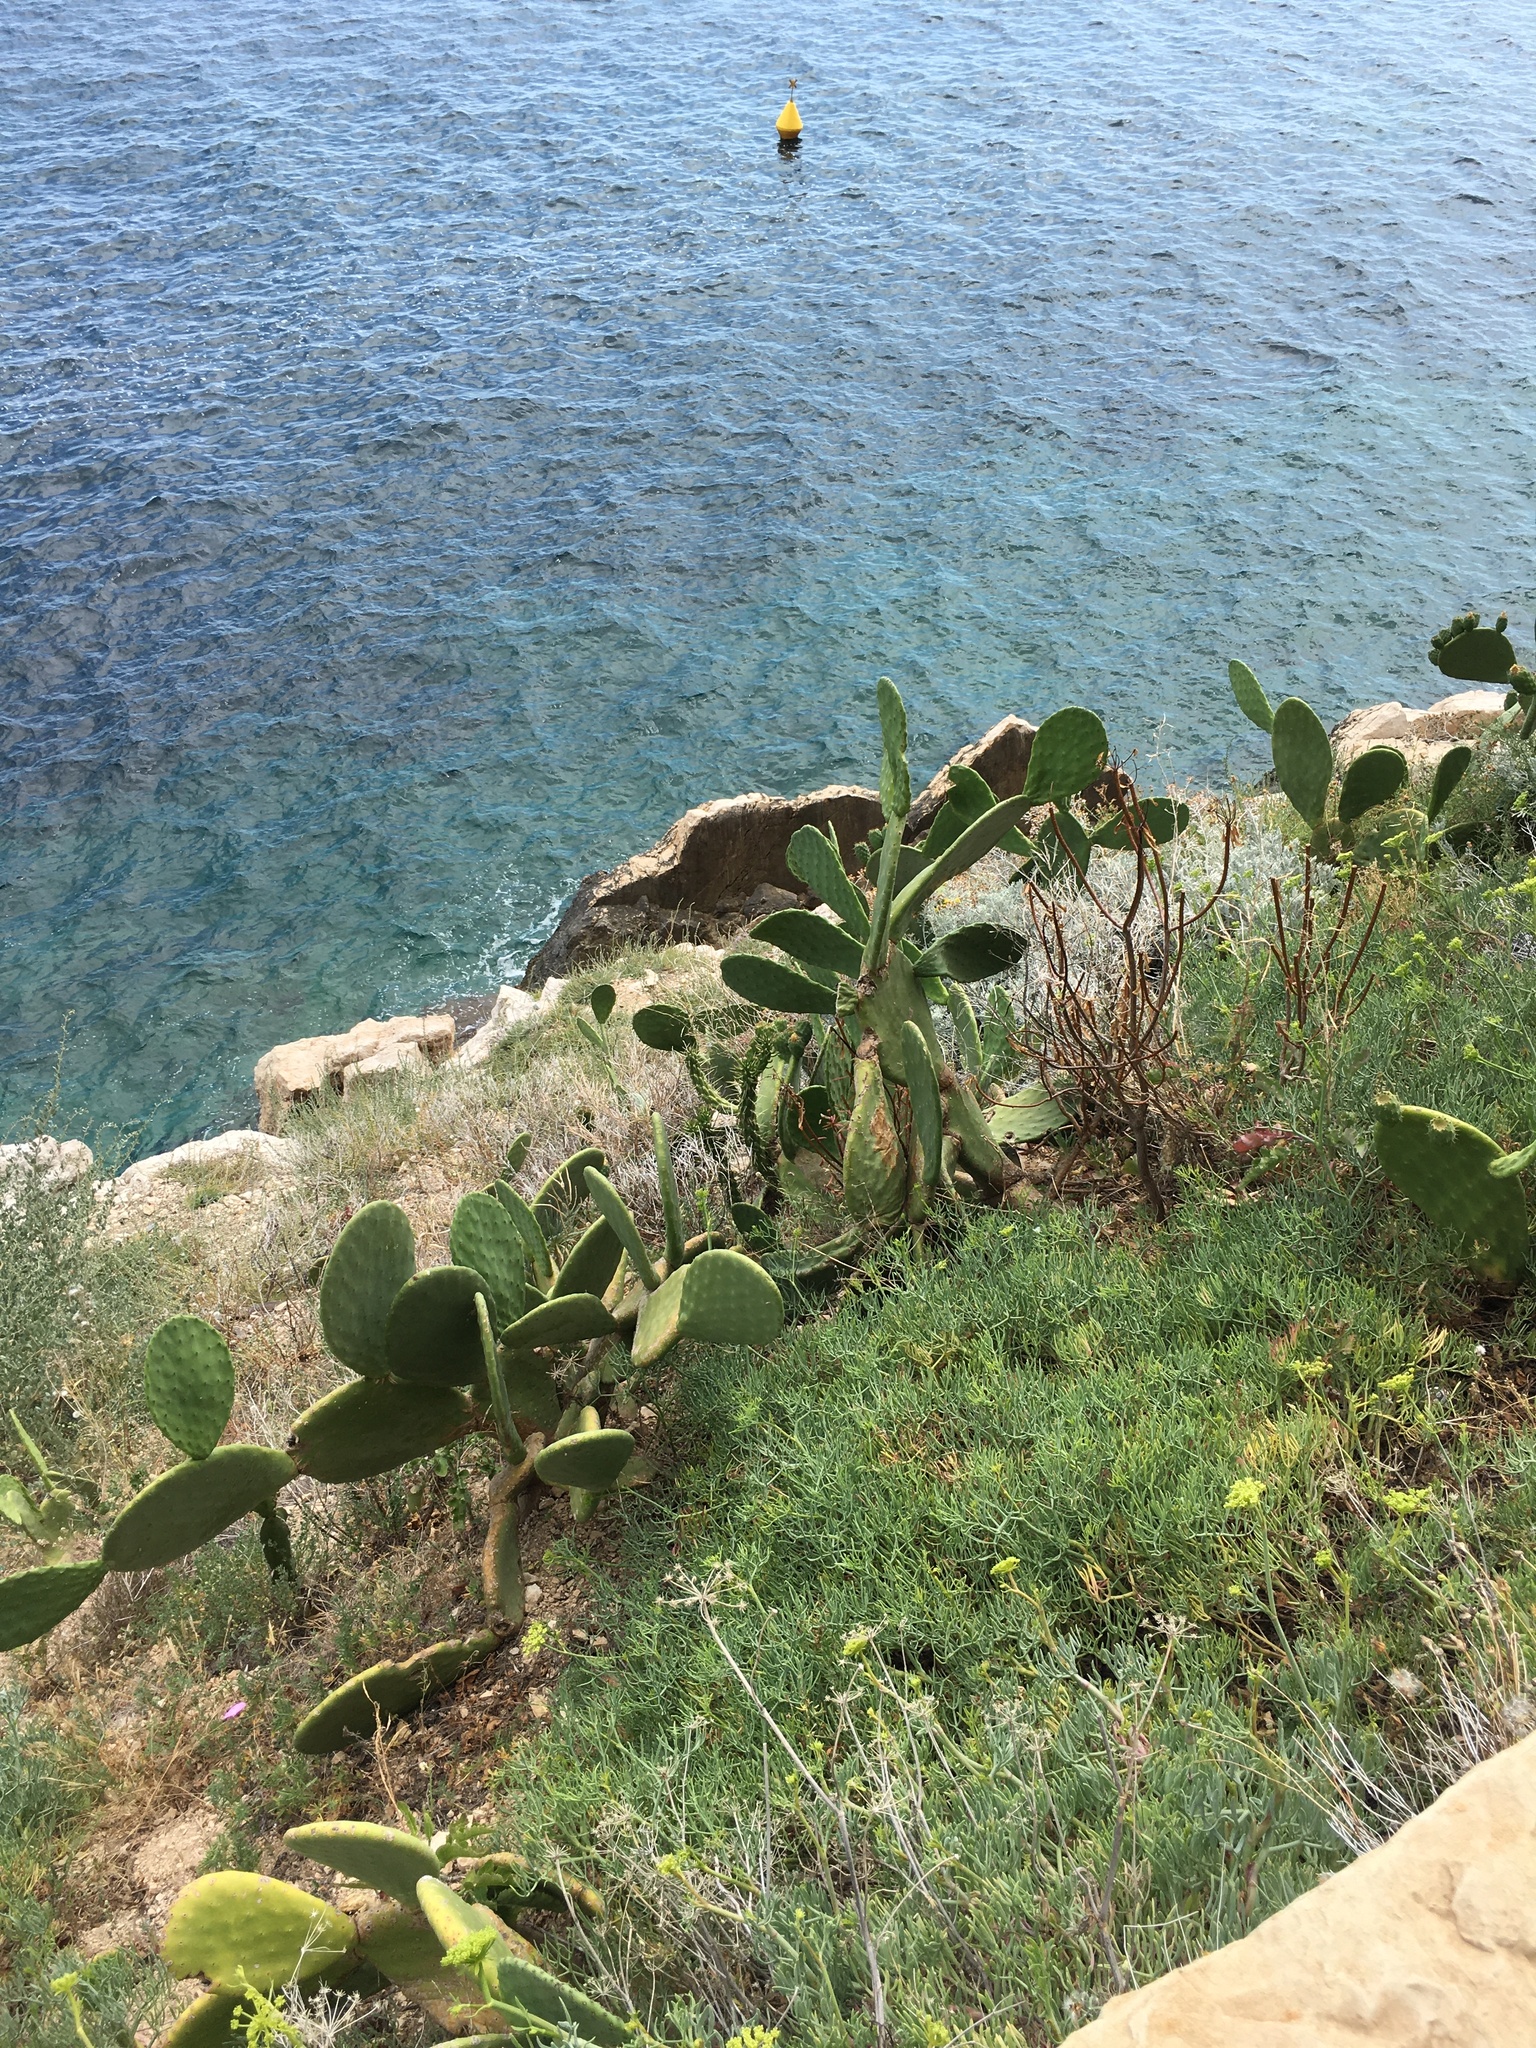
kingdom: Plantae
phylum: Tracheophyta
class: Magnoliopsida
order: Caryophyllales
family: Cactaceae
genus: Opuntia
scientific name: Opuntia ficus-indica
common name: Barbary fig
